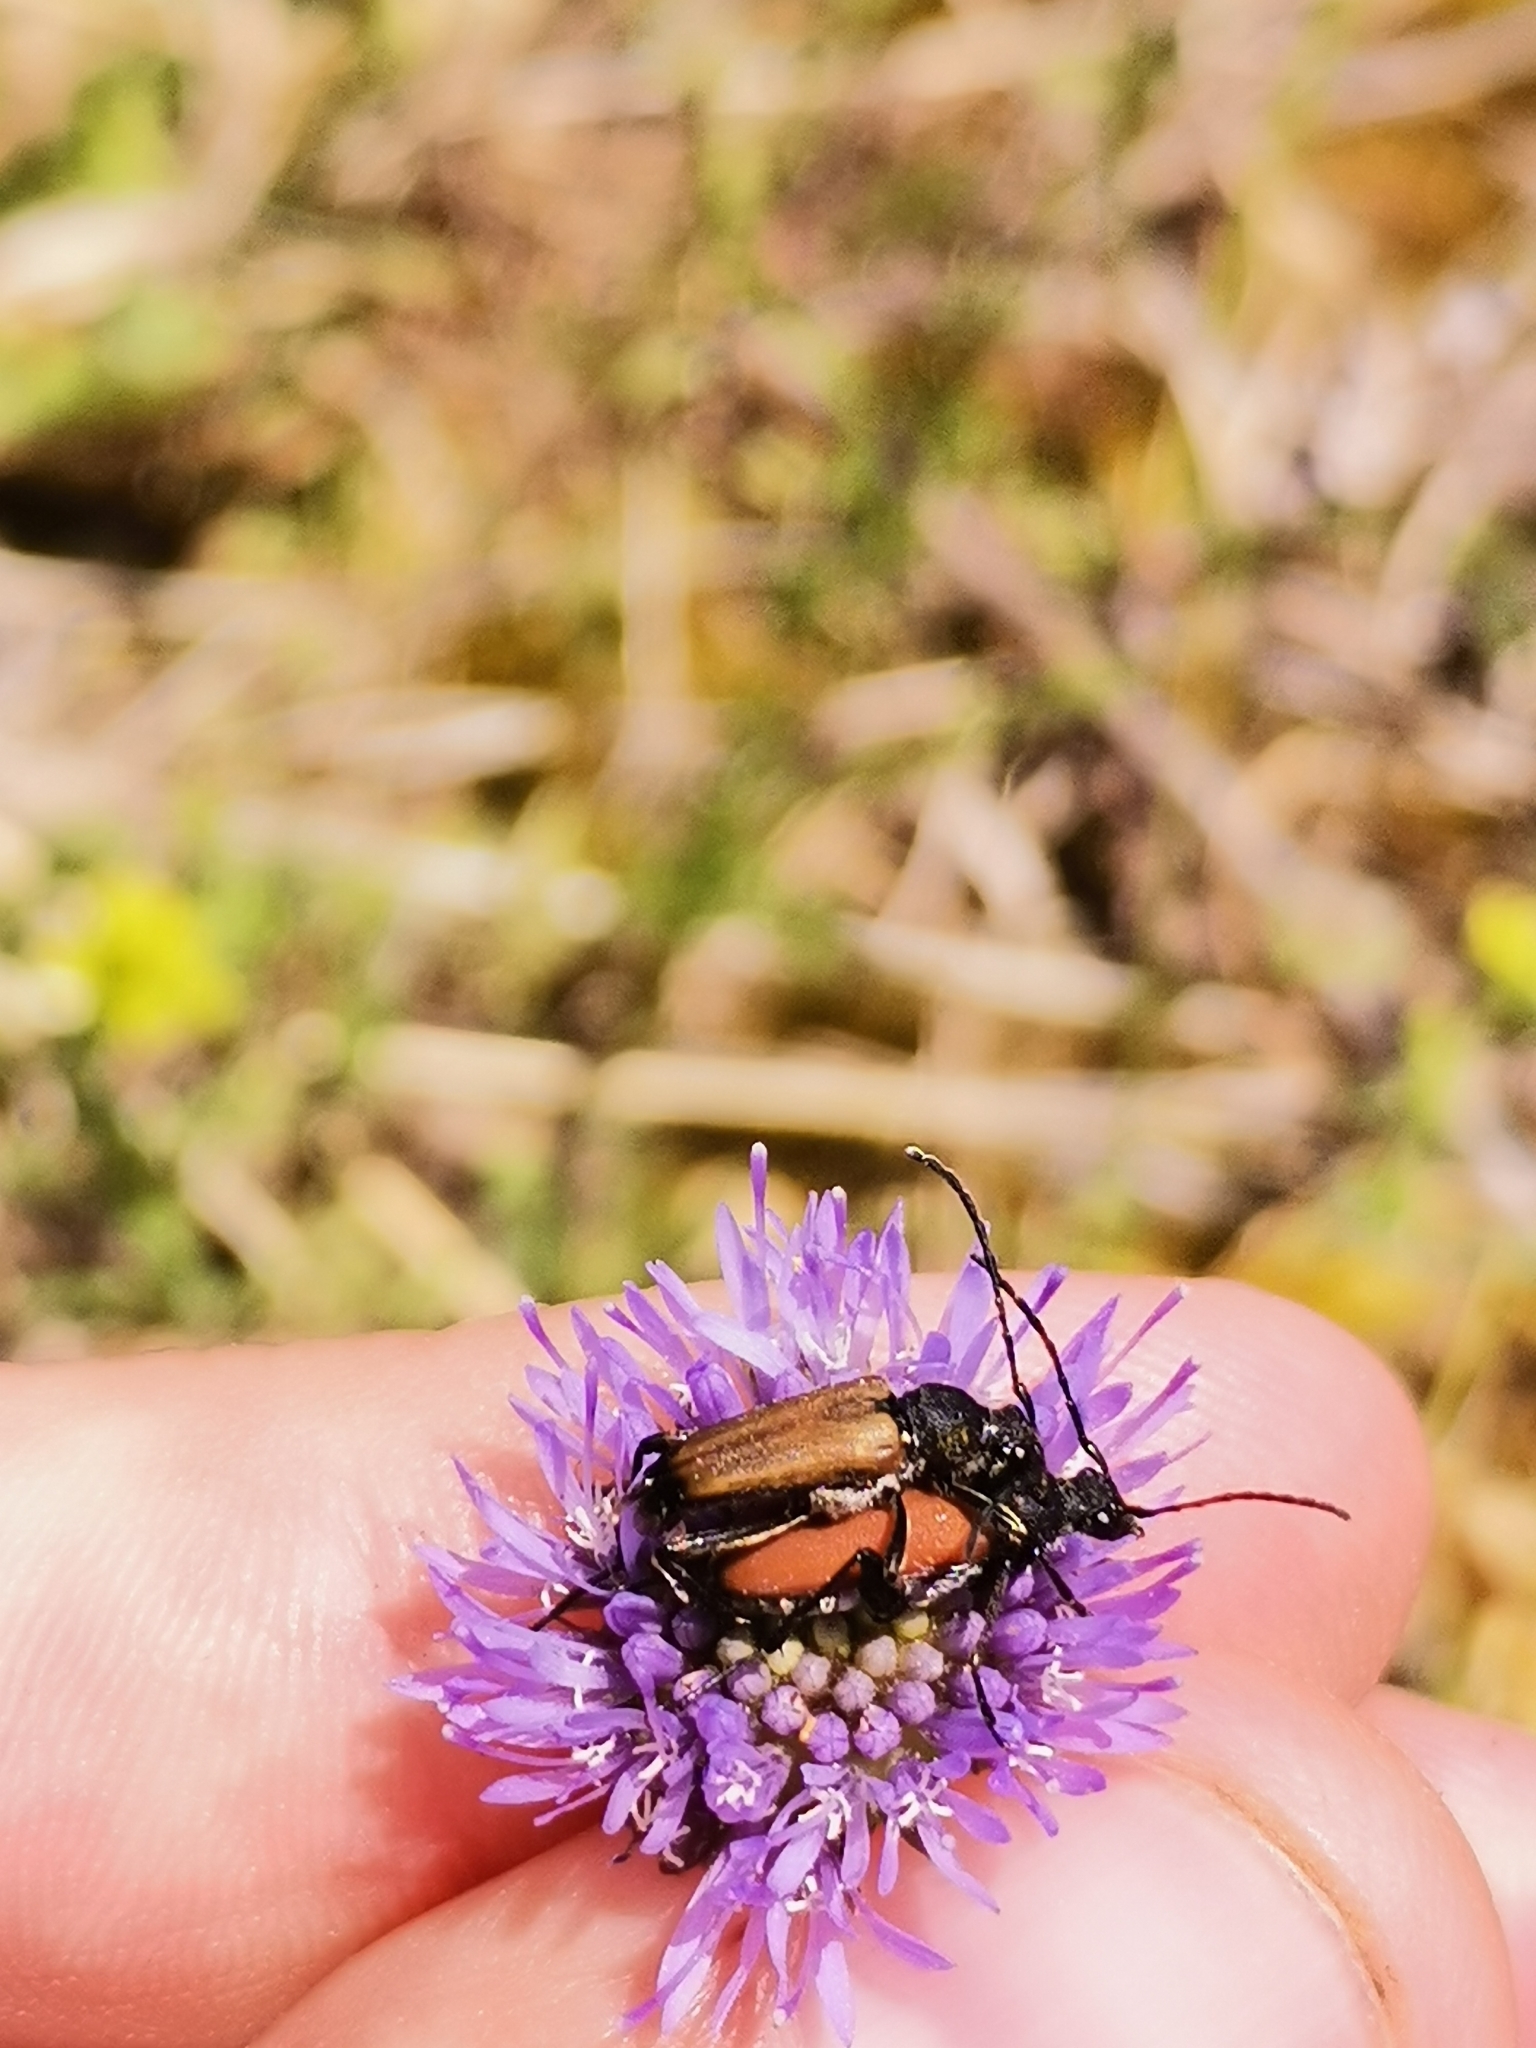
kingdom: Animalia
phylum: Arthropoda
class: Insecta
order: Coleoptera
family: Cerambycidae
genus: Anastrangalia
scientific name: Anastrangalia sanguinolenta
